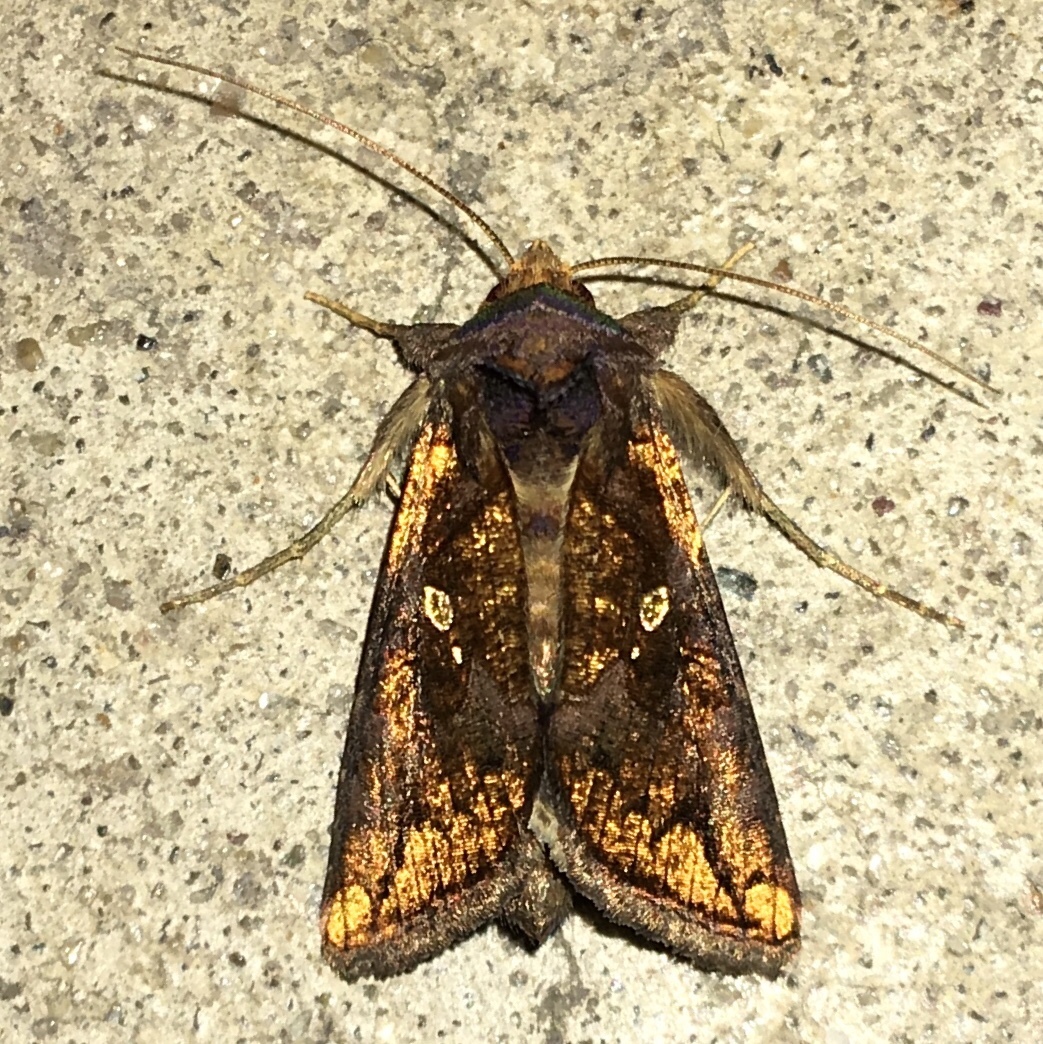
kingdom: Animalia
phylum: Arthropoda
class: Insecta
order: Lepidoptera
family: Noctuidae
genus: Argyrogramma
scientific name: Argyrogramma verruca
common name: Golden looper moth
